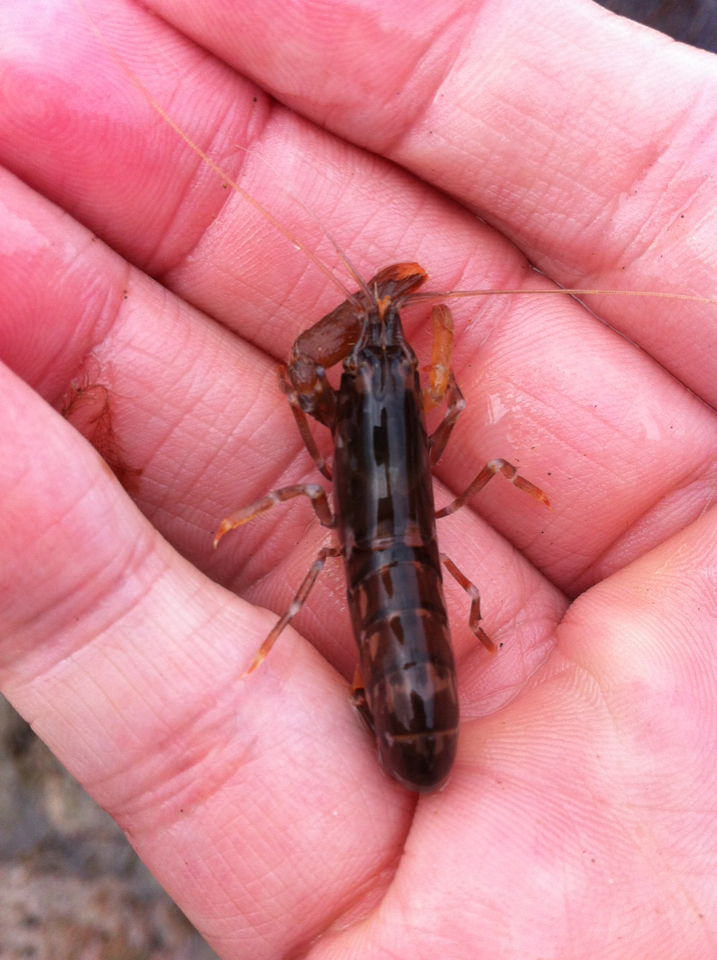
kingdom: Animalia
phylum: Arthropoda
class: Malacostraca
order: Decapoda
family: Alpheidae
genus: Alpheus
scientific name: Alpheus novaezealandiae
